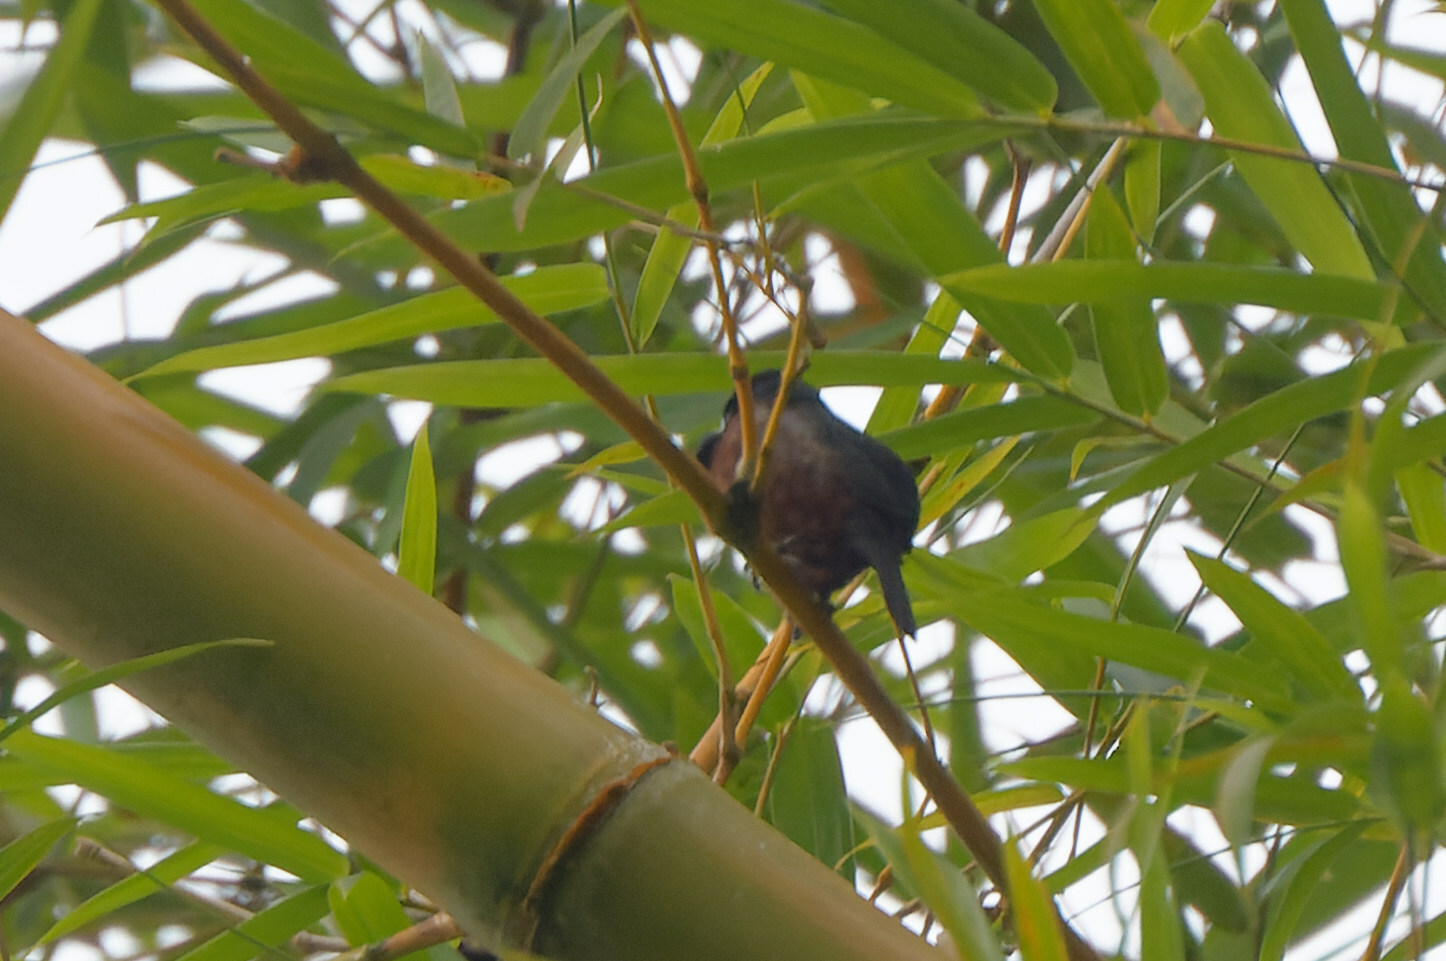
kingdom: Animalia
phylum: Chordata
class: Aves
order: Passeriformes
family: Thraupidae
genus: Sporophila
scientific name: Sporophila angolensis
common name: Chestnut-bellied seed-finch
